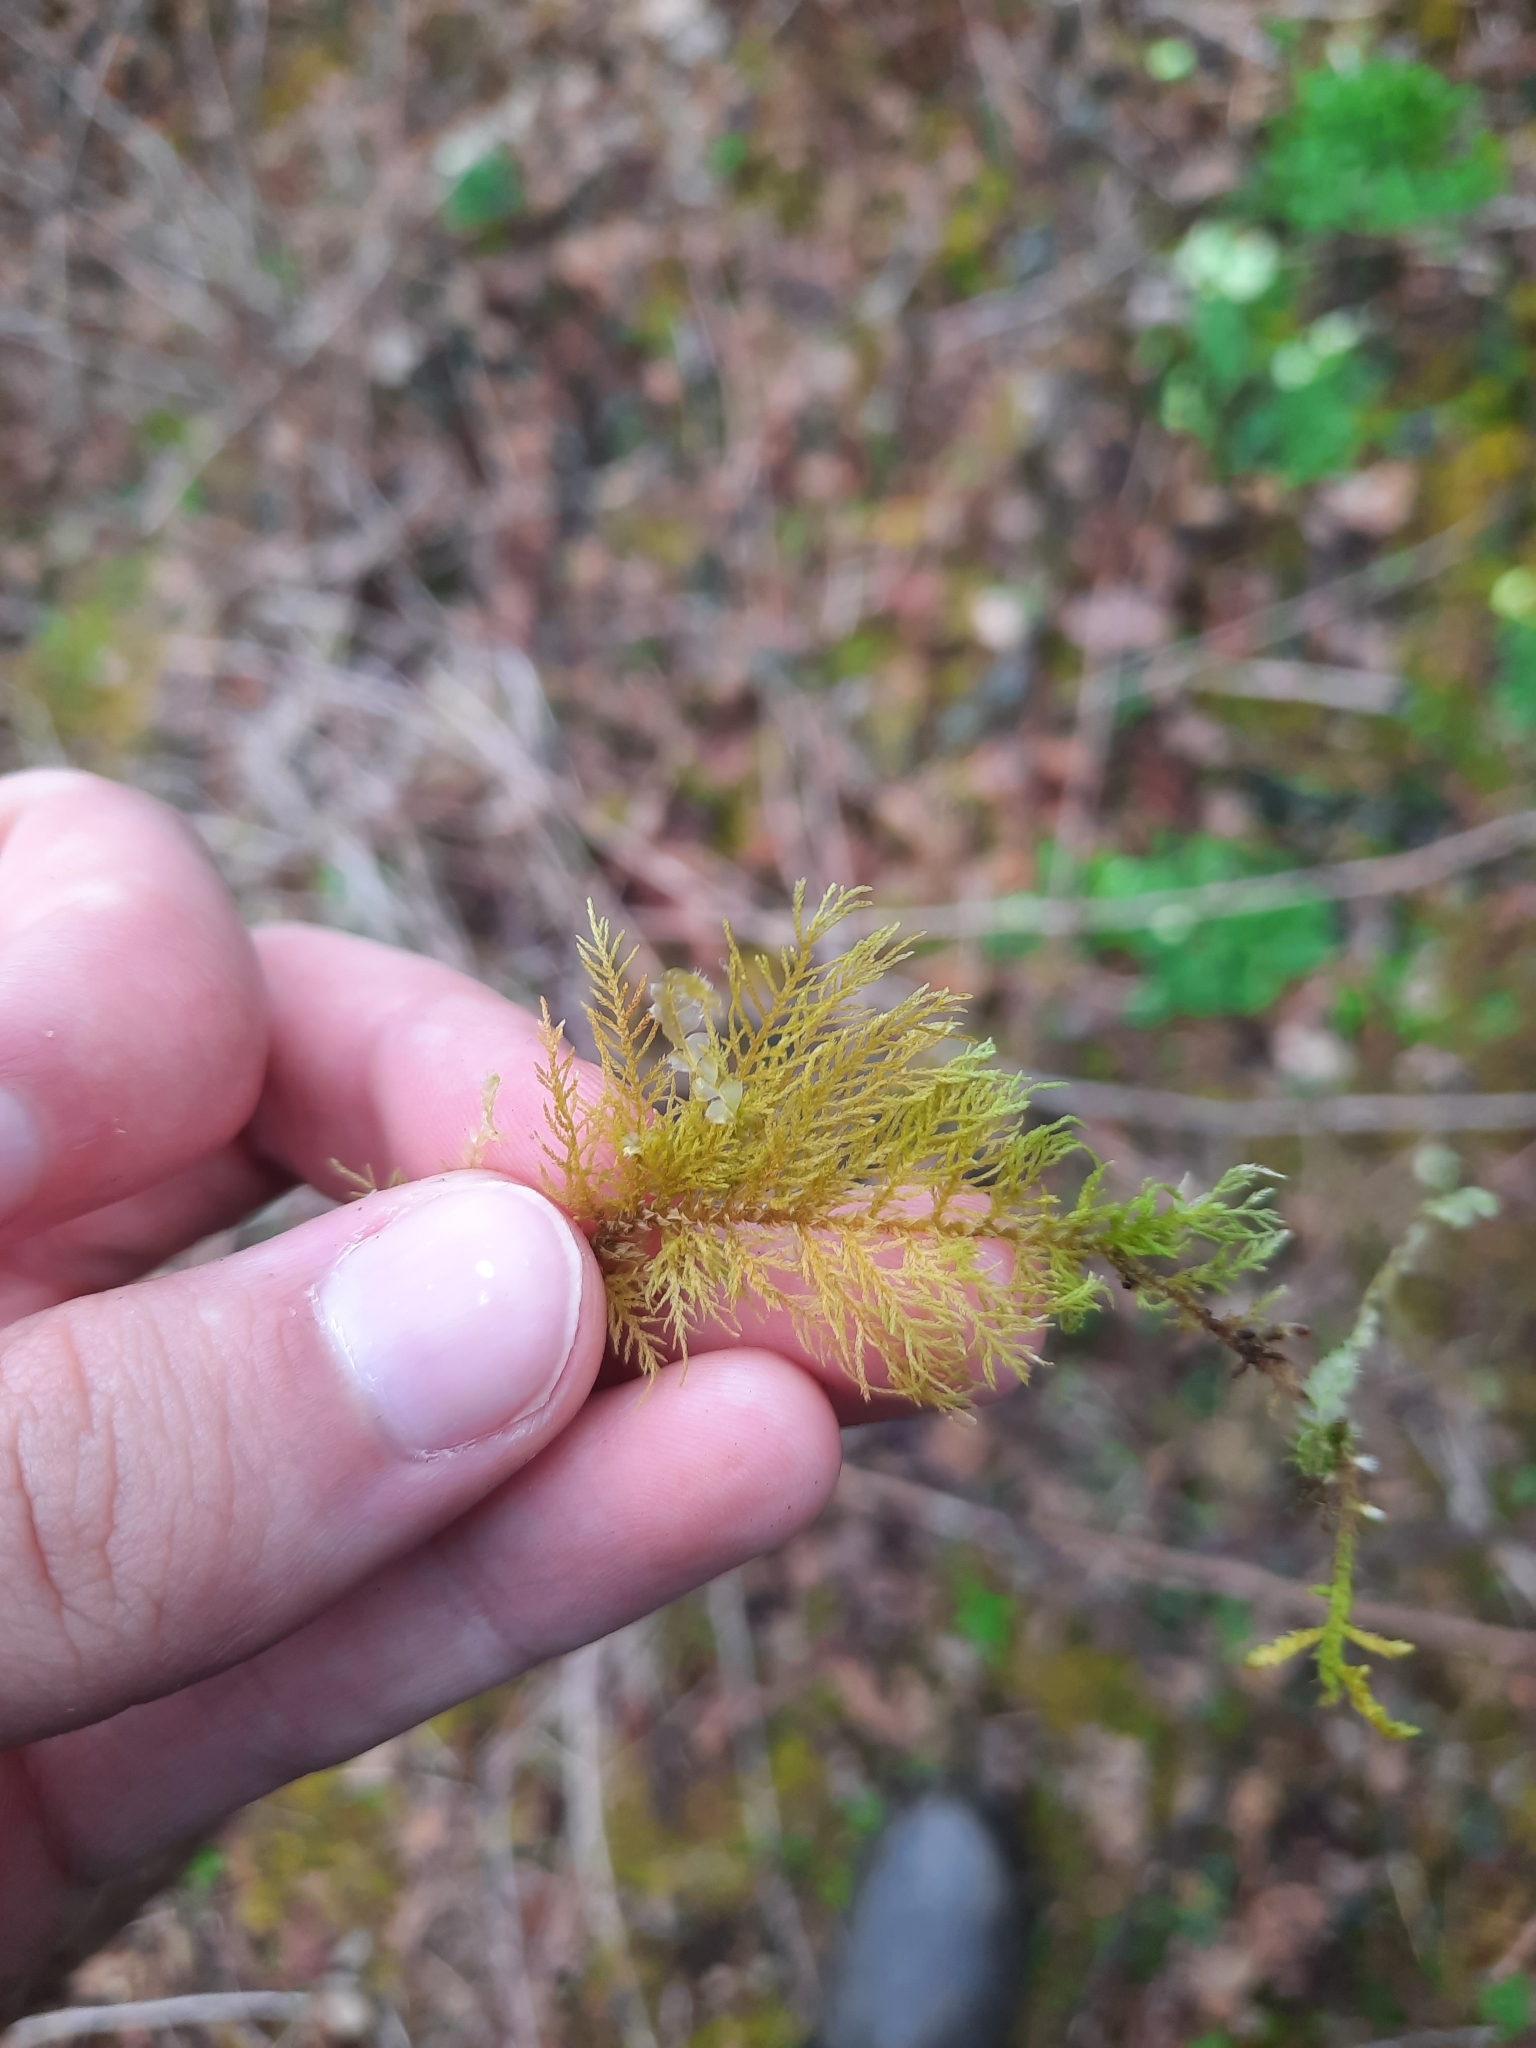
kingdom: Plantae
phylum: Bryophyta
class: Bryopsida
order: Hypnales
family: Thuidiaceae
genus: Thuidium
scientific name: Thuidium tamariscinum
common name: Common tamarisk-moss
